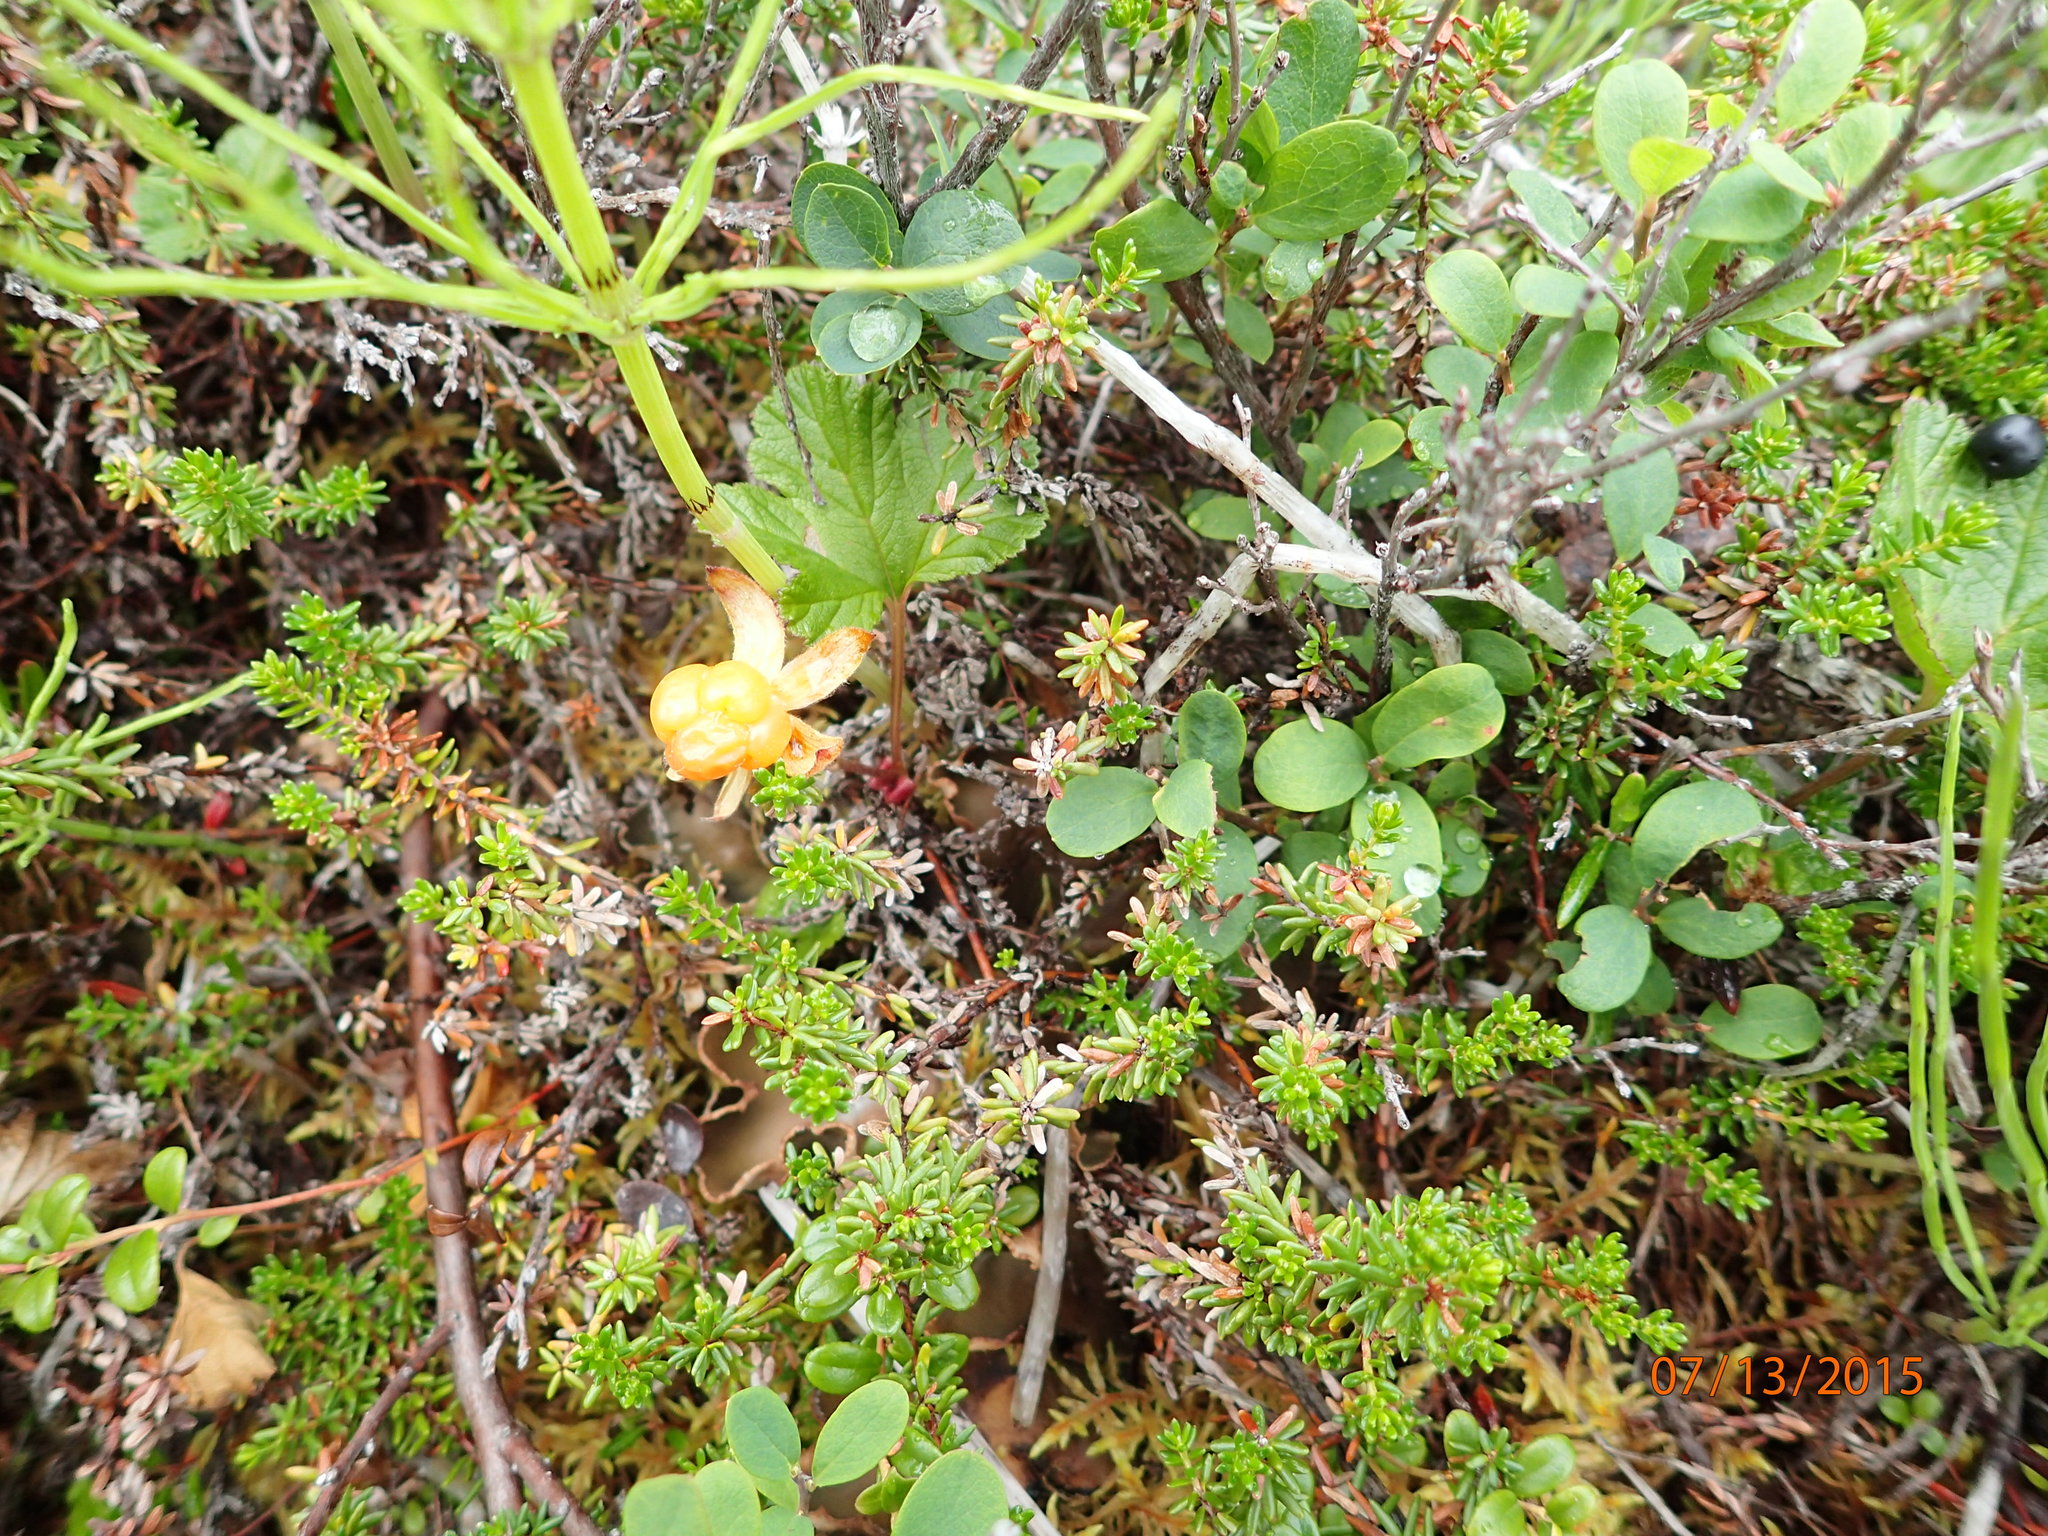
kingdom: Plantae
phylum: Tracheophyta
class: Magnoliopsida
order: Rosales
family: Rosaceae
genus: Rubus
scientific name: Rubus chamaemorus
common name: Cloudberry
